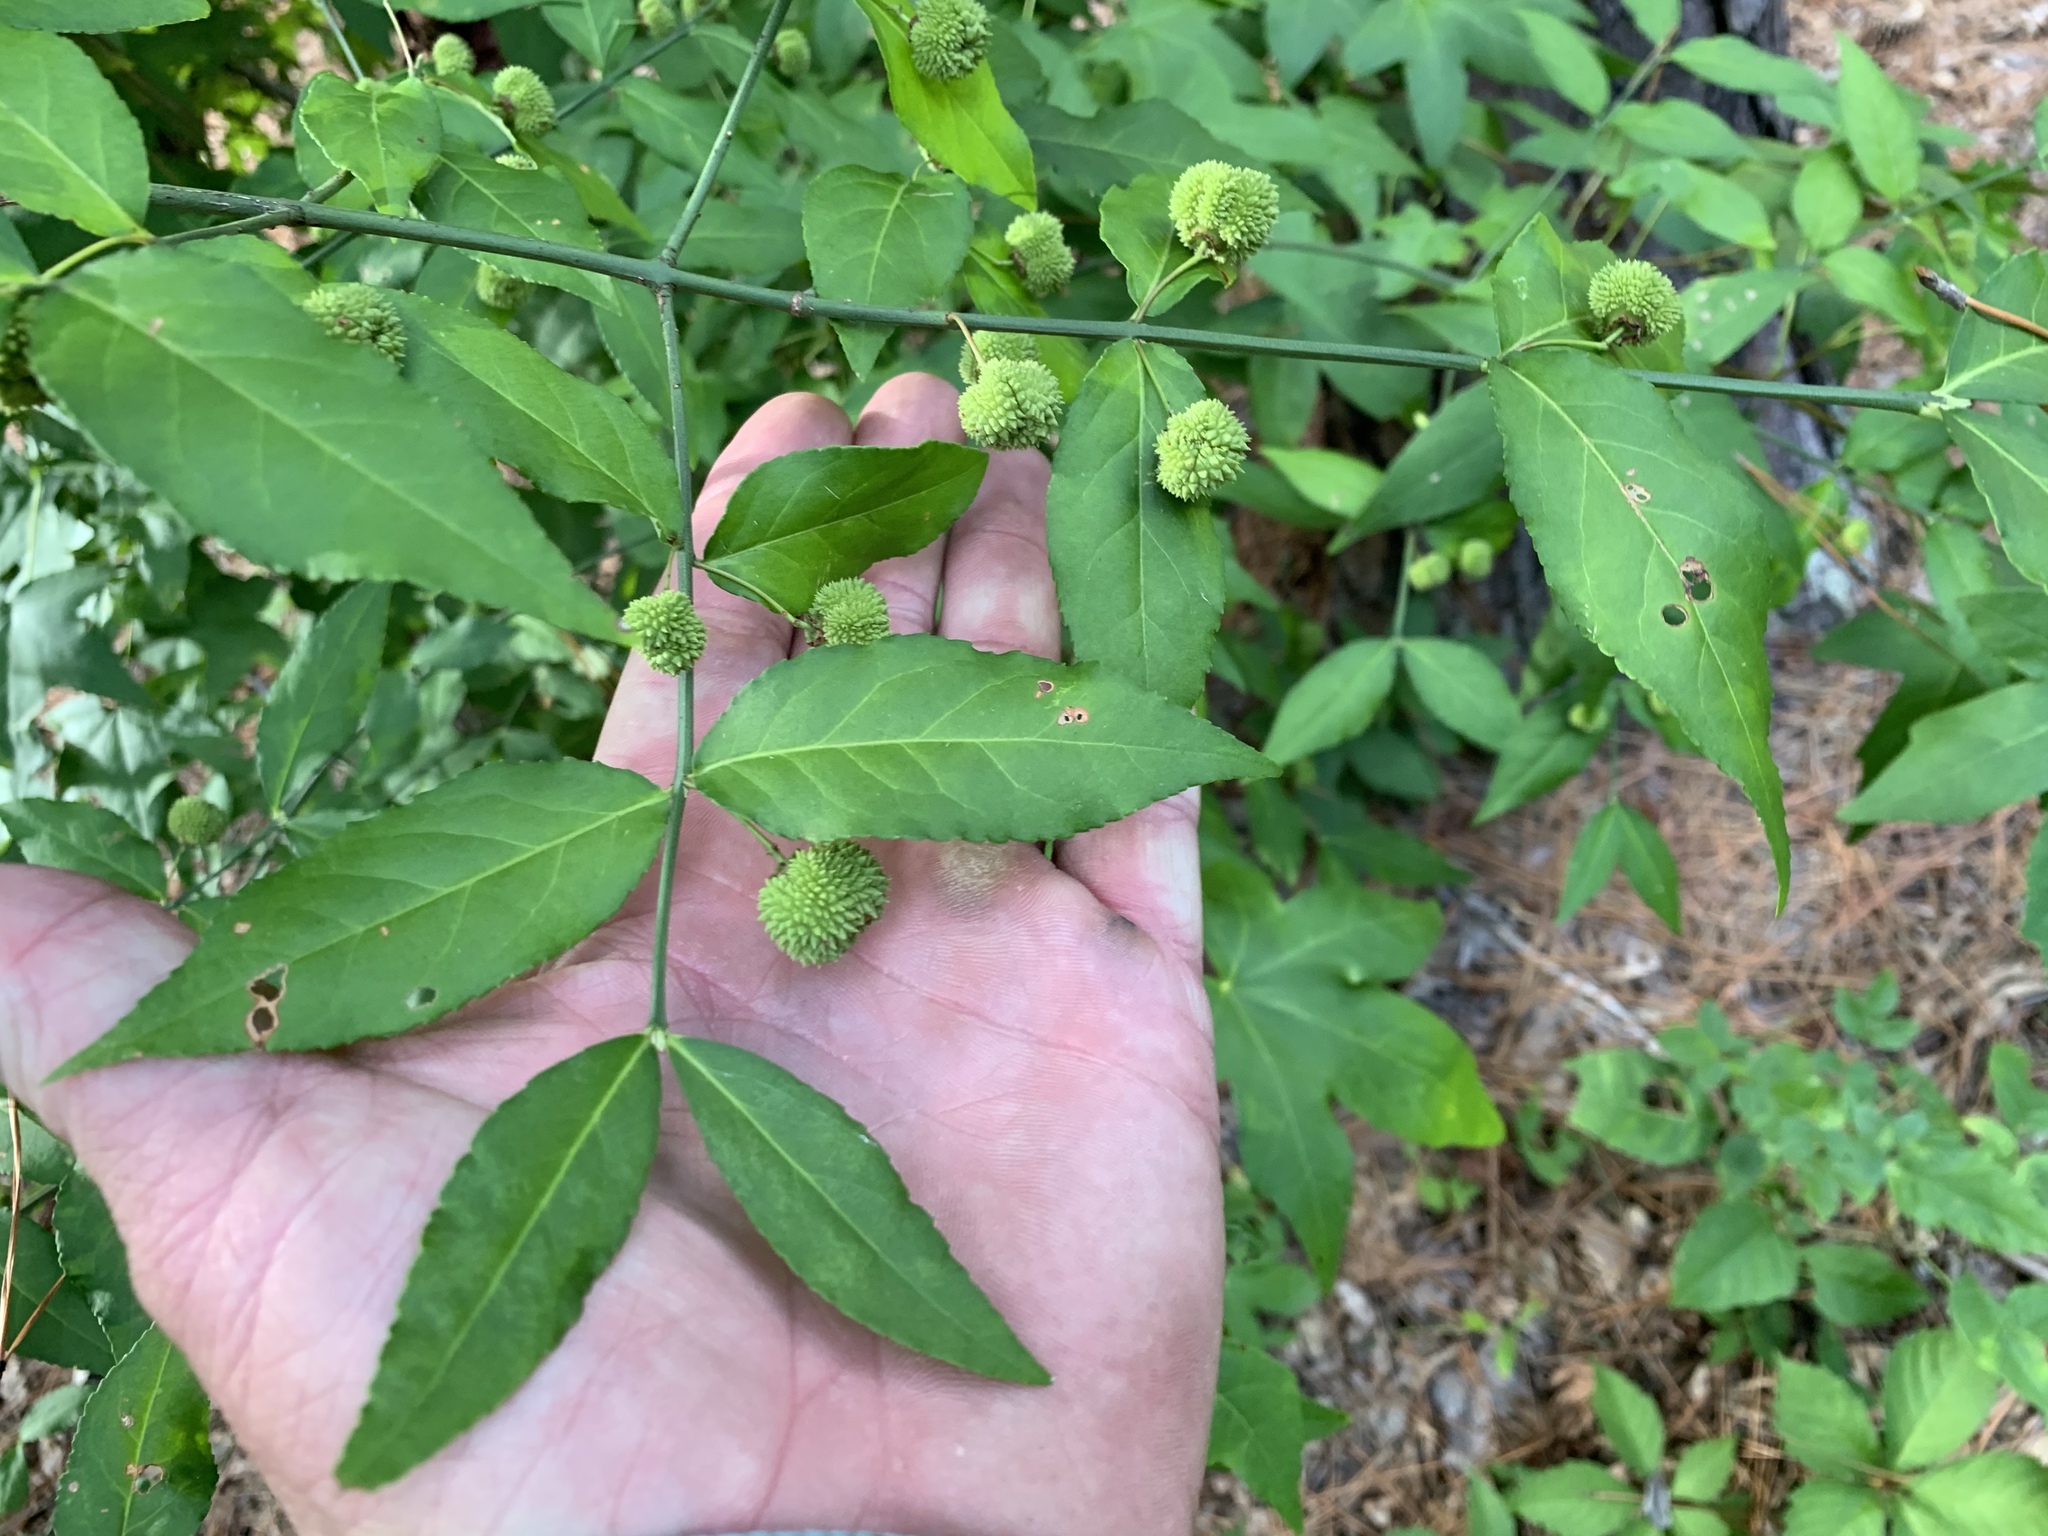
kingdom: Plantae
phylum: Tracheophyta
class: Magnoliopsida
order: Celastrales
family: Celastraceae
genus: Euonymus
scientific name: Euonymus americanus
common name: Bursting-heart
